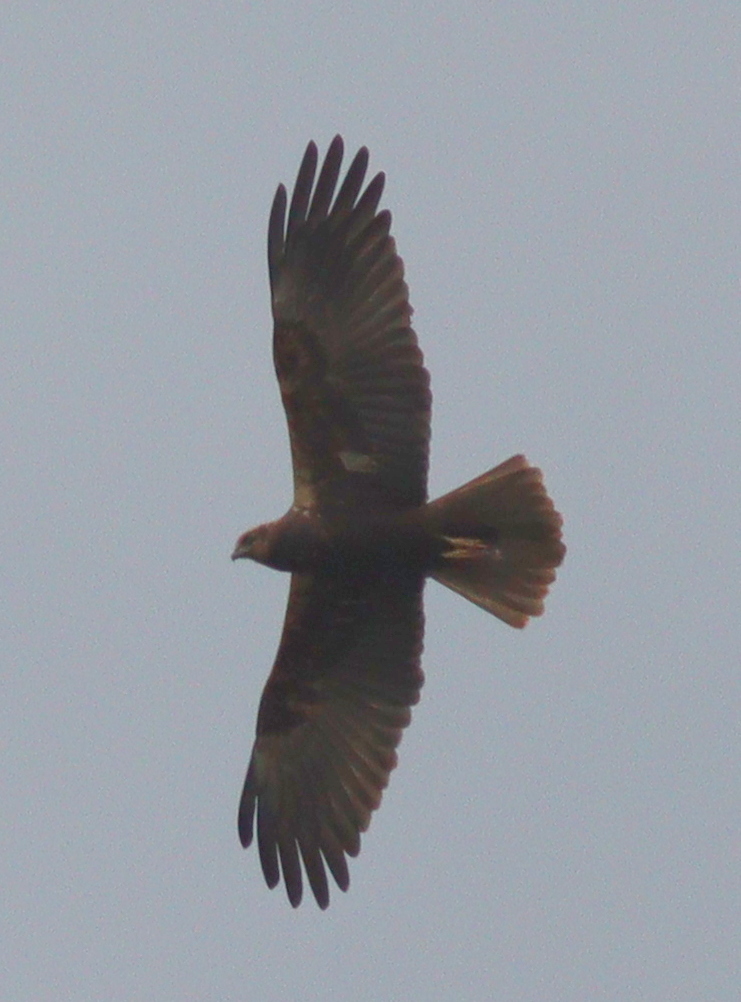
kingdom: Animalia
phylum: Chordata
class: Aves
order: Accipitriformes
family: Accipitridae
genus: Circus
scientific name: Circus aeruginosus
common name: Western marsh harrier
